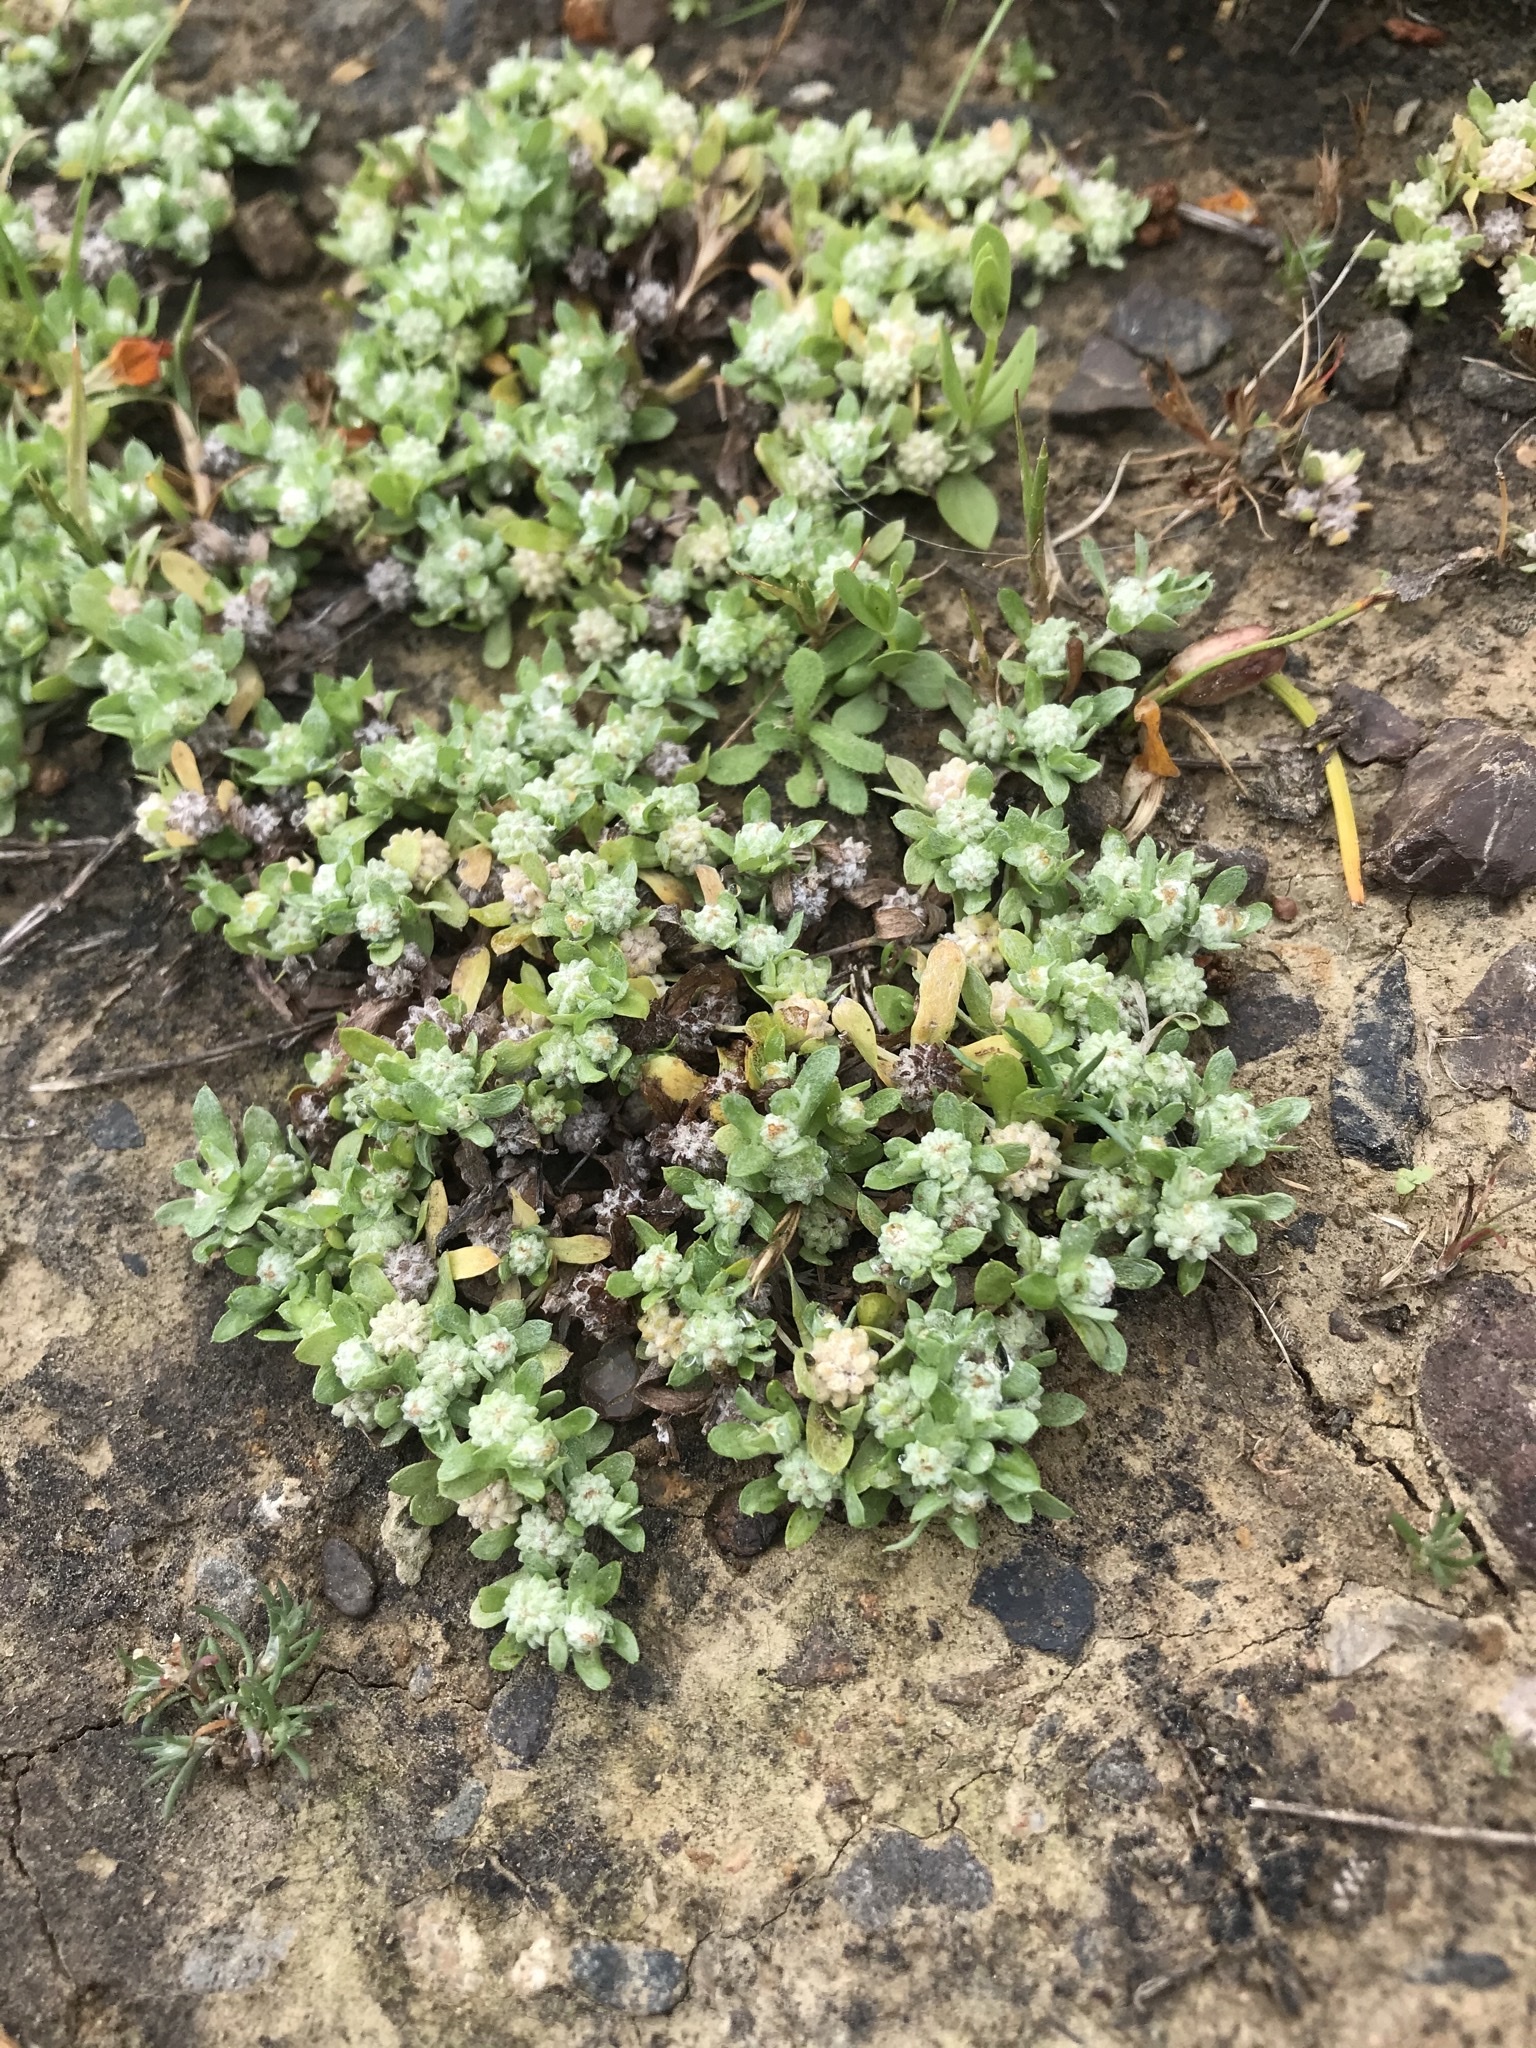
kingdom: Plantae
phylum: Tracheophyta
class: Magnoliopsida
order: Asterales
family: Asteraceae
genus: Psilocarphus
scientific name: Psilocarphus tenellus
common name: Slender woolly-marbles
